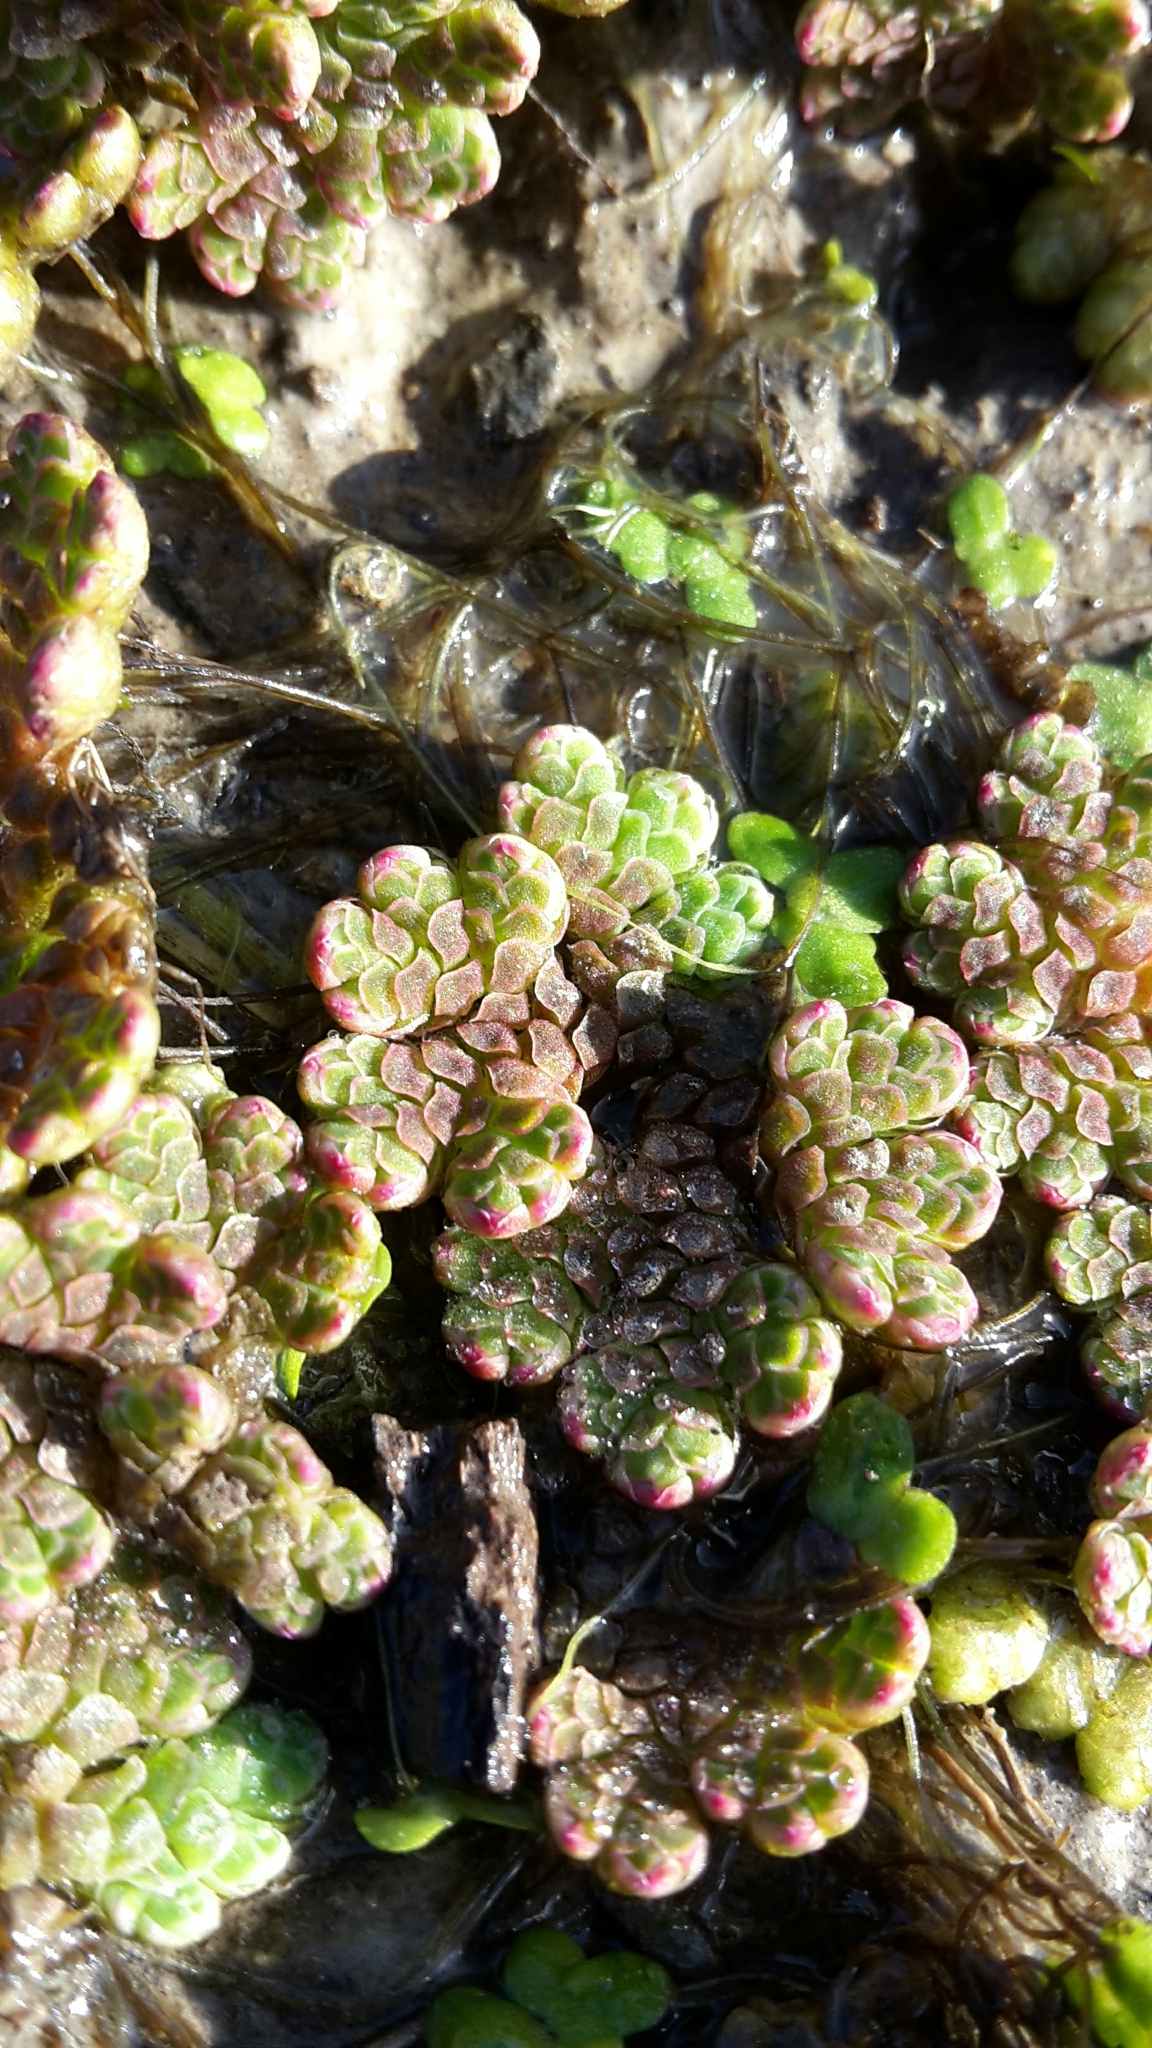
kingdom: Plantae
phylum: Tracheophyta
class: Polypodiopsida
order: Salviniales
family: Salviniaceae
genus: Azolla
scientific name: Azolla rubra
